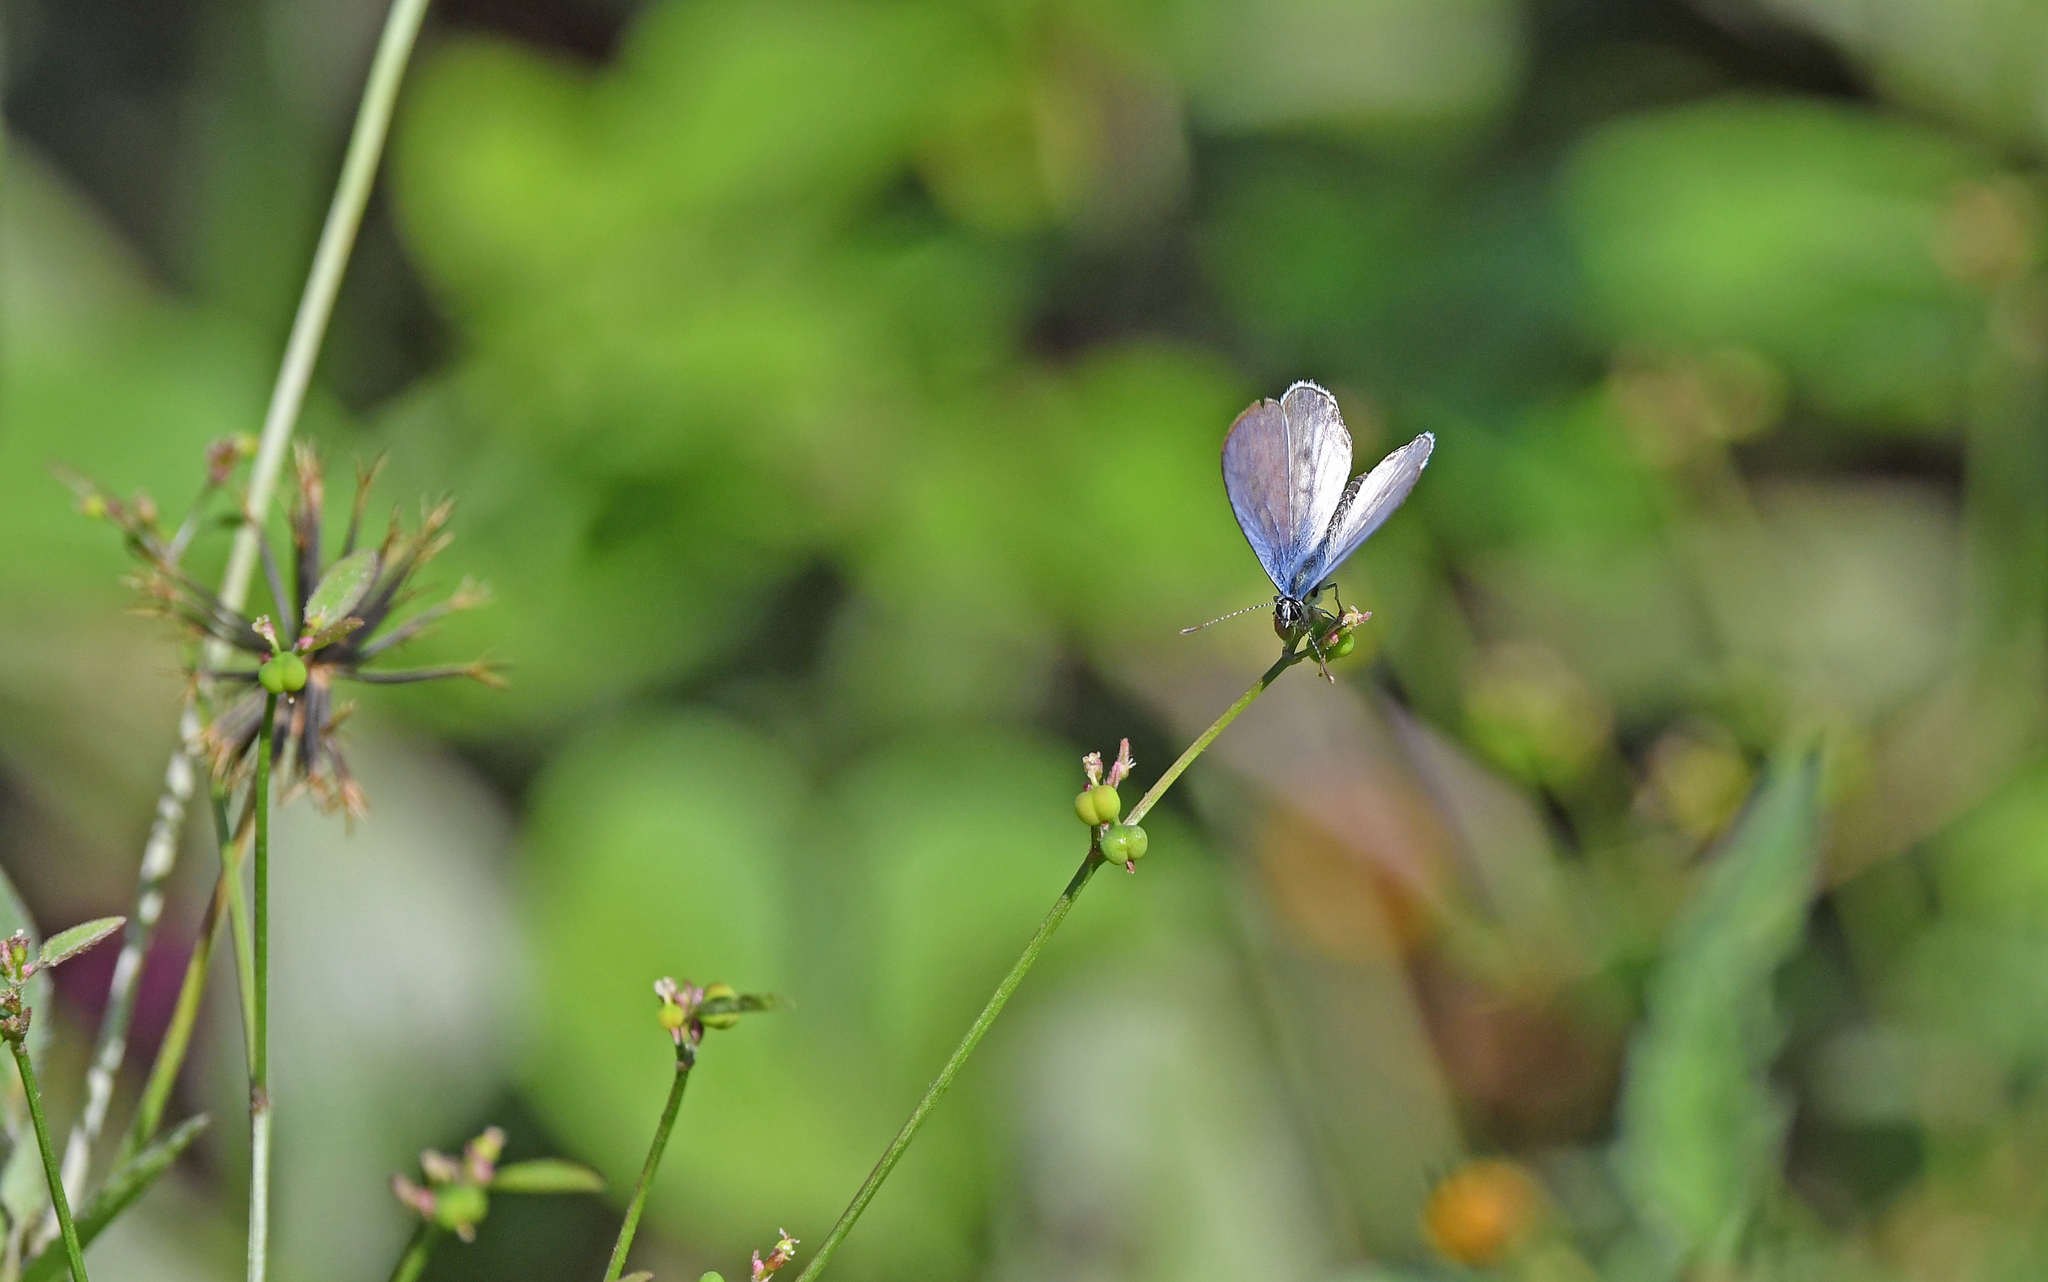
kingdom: Animalia
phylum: Arthropoda
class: Insecta
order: Lepidoptera
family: Lycaenidae
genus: Leptotes
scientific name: Leptotes cassius
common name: Cassius blue
